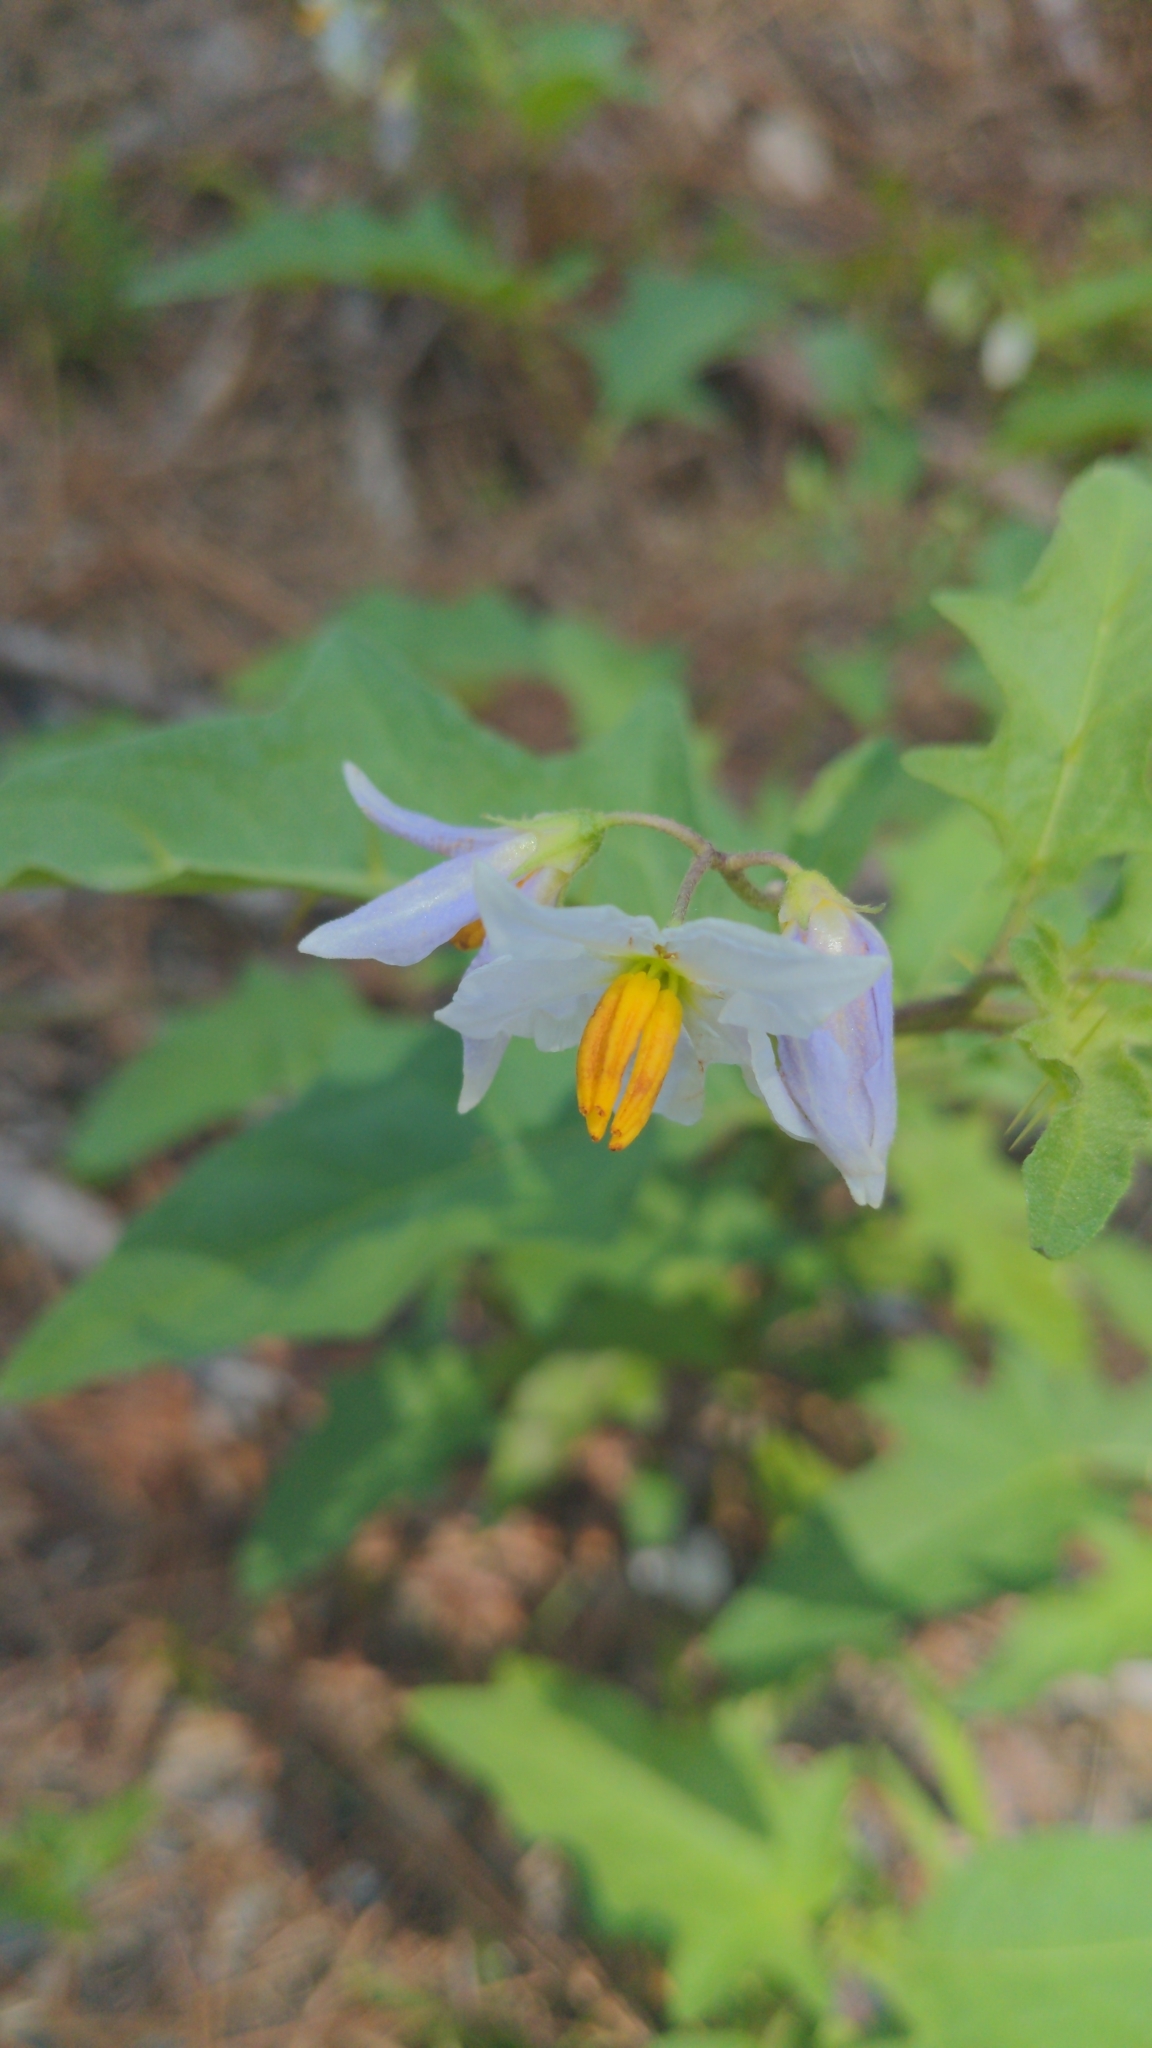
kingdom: Plantae
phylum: Tracheophyta
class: Magnoliopsida
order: Solanales
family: Solanaceae
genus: Solanum
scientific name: Solanum carolinense
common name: Horse-nettle
